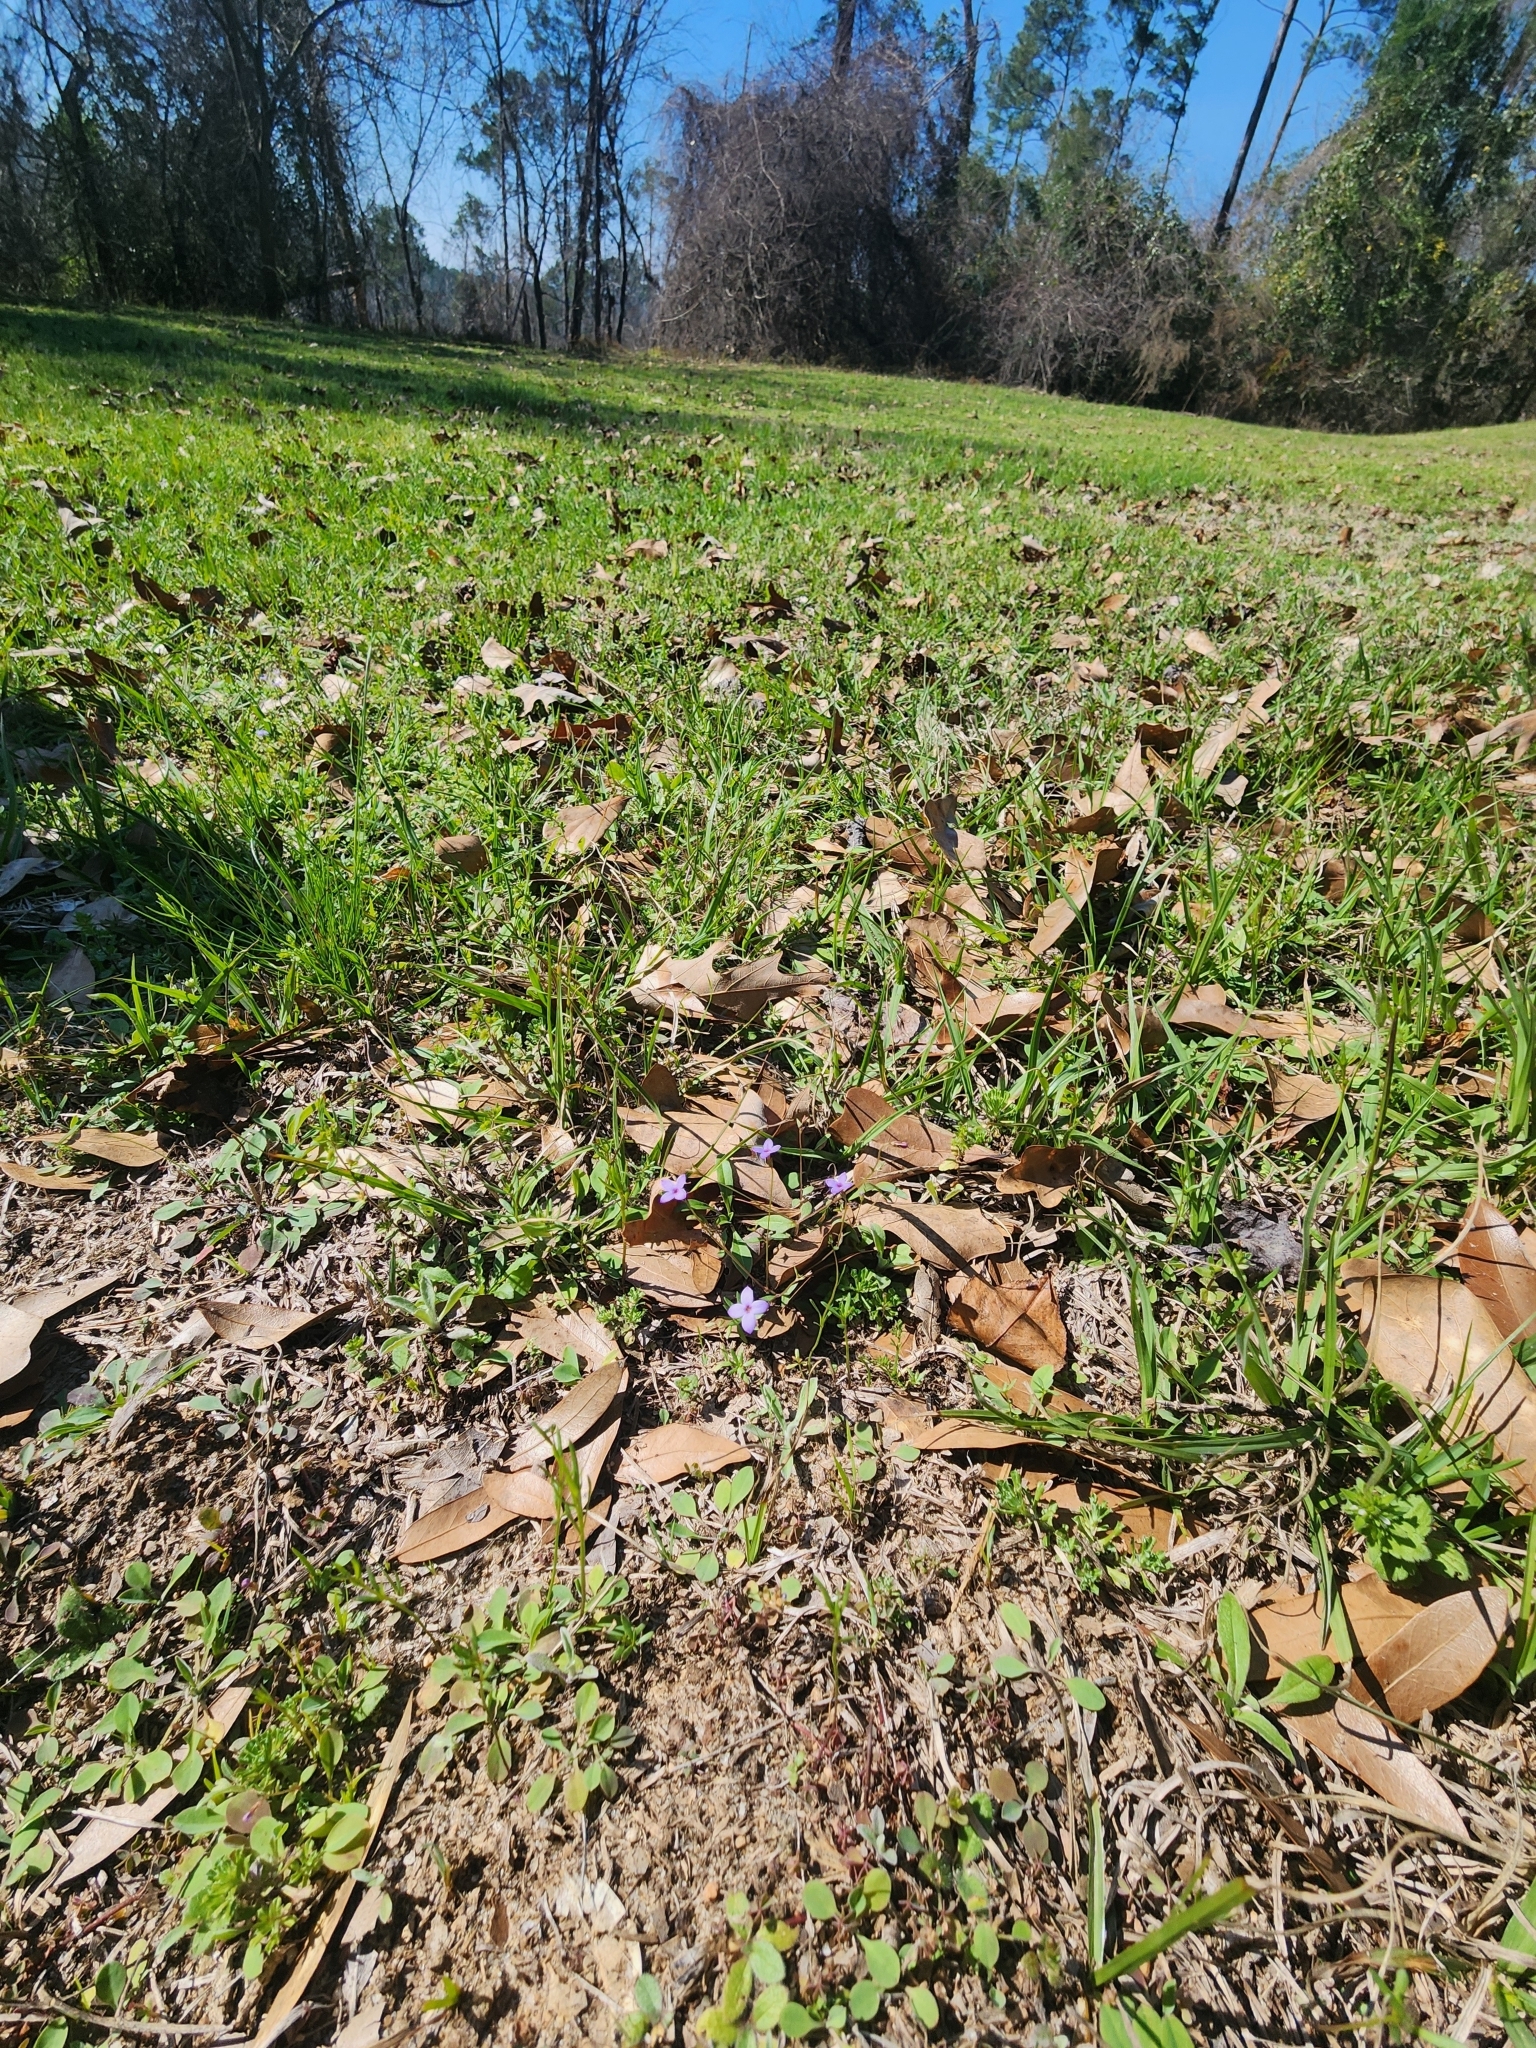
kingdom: Plantae
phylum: Tracheophyta
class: Magnoliopsida
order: Gentianales
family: Rubiaceae
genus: Houstonia
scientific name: Houstonia pusilla
